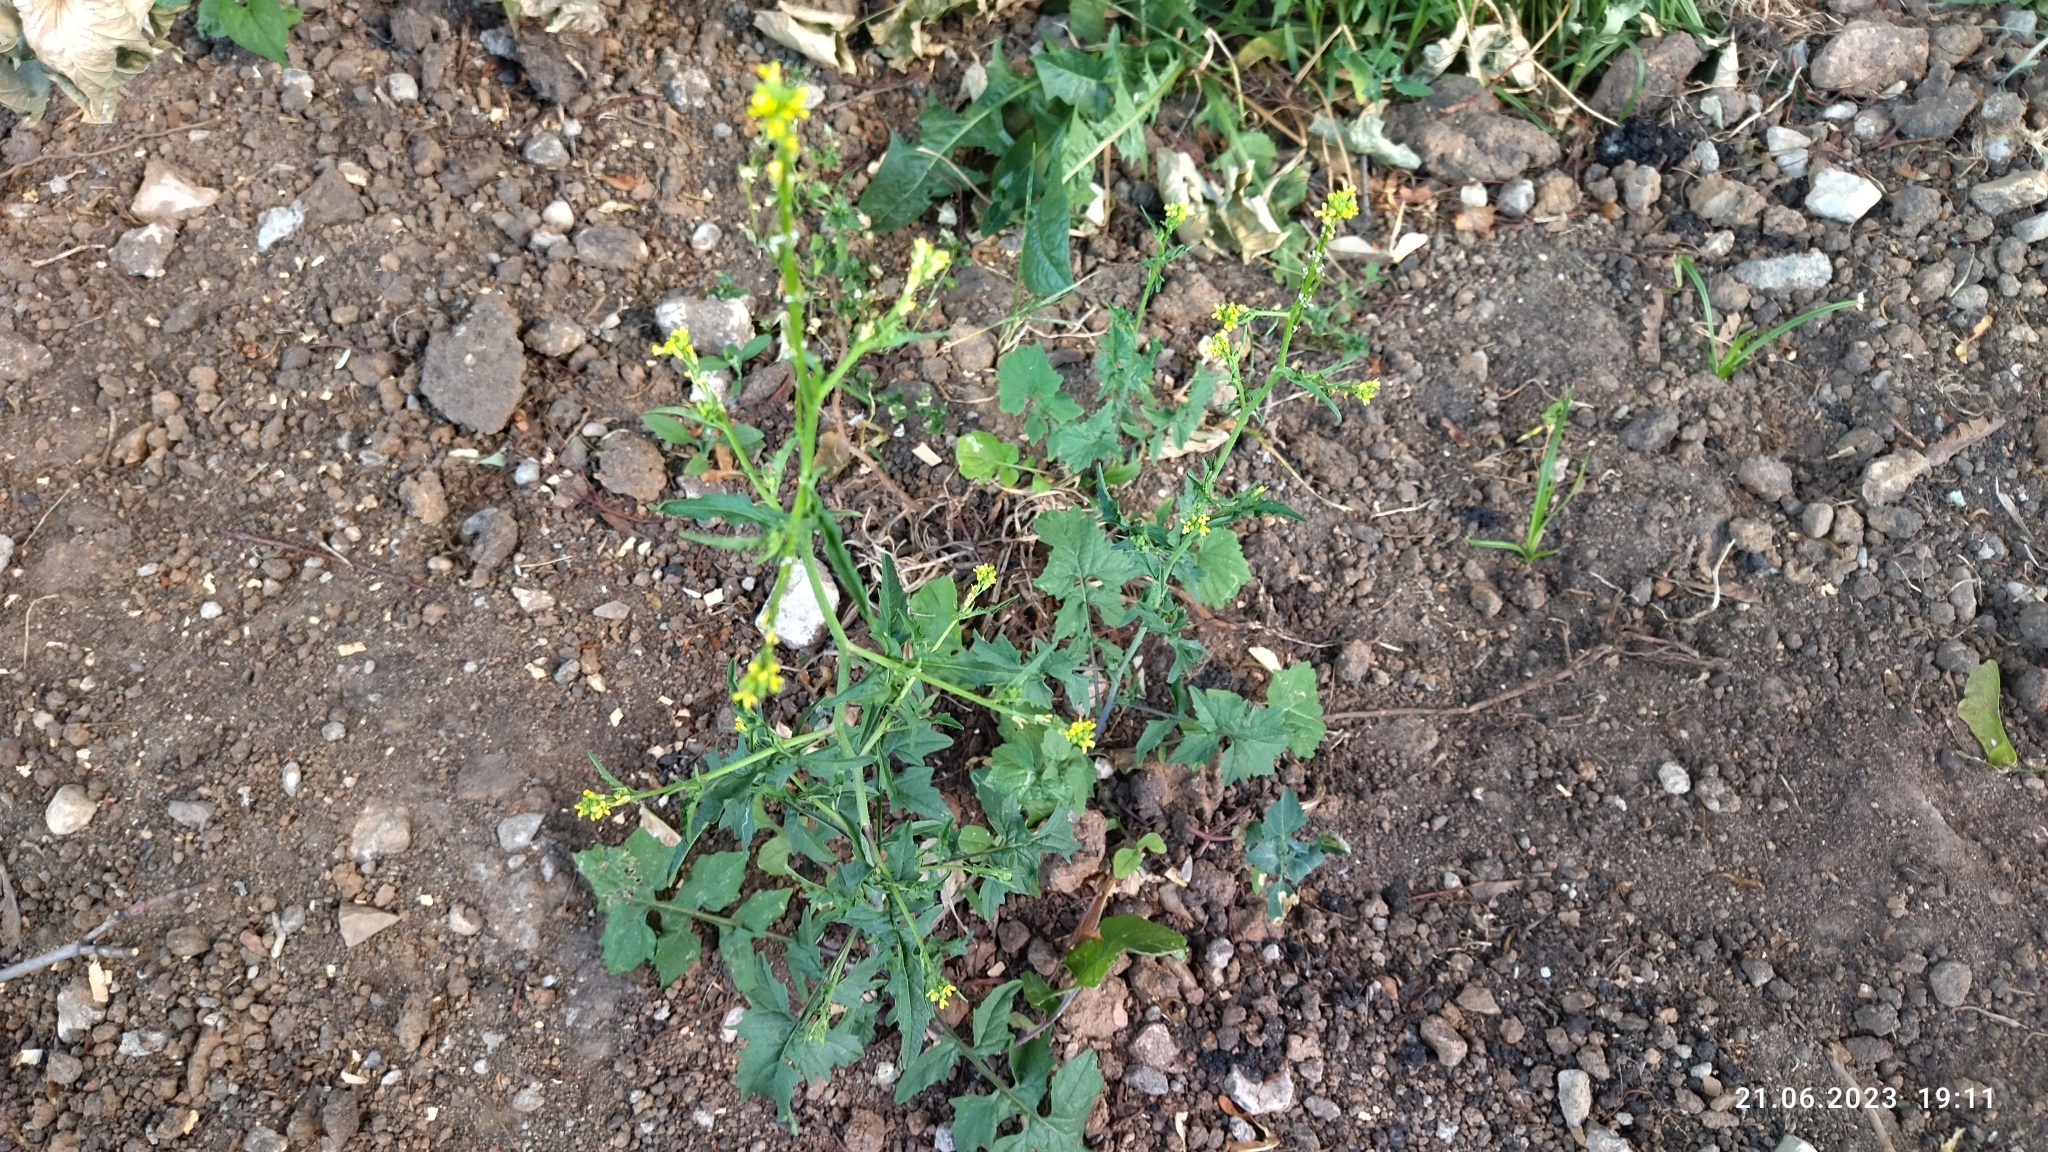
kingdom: Plantae
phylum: Tracheophyta
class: Magnoliopsida
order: Brassicales
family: Brassicaceae
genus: Sisymbrium
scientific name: Sisymbrium officinale
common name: Hedge mustard
